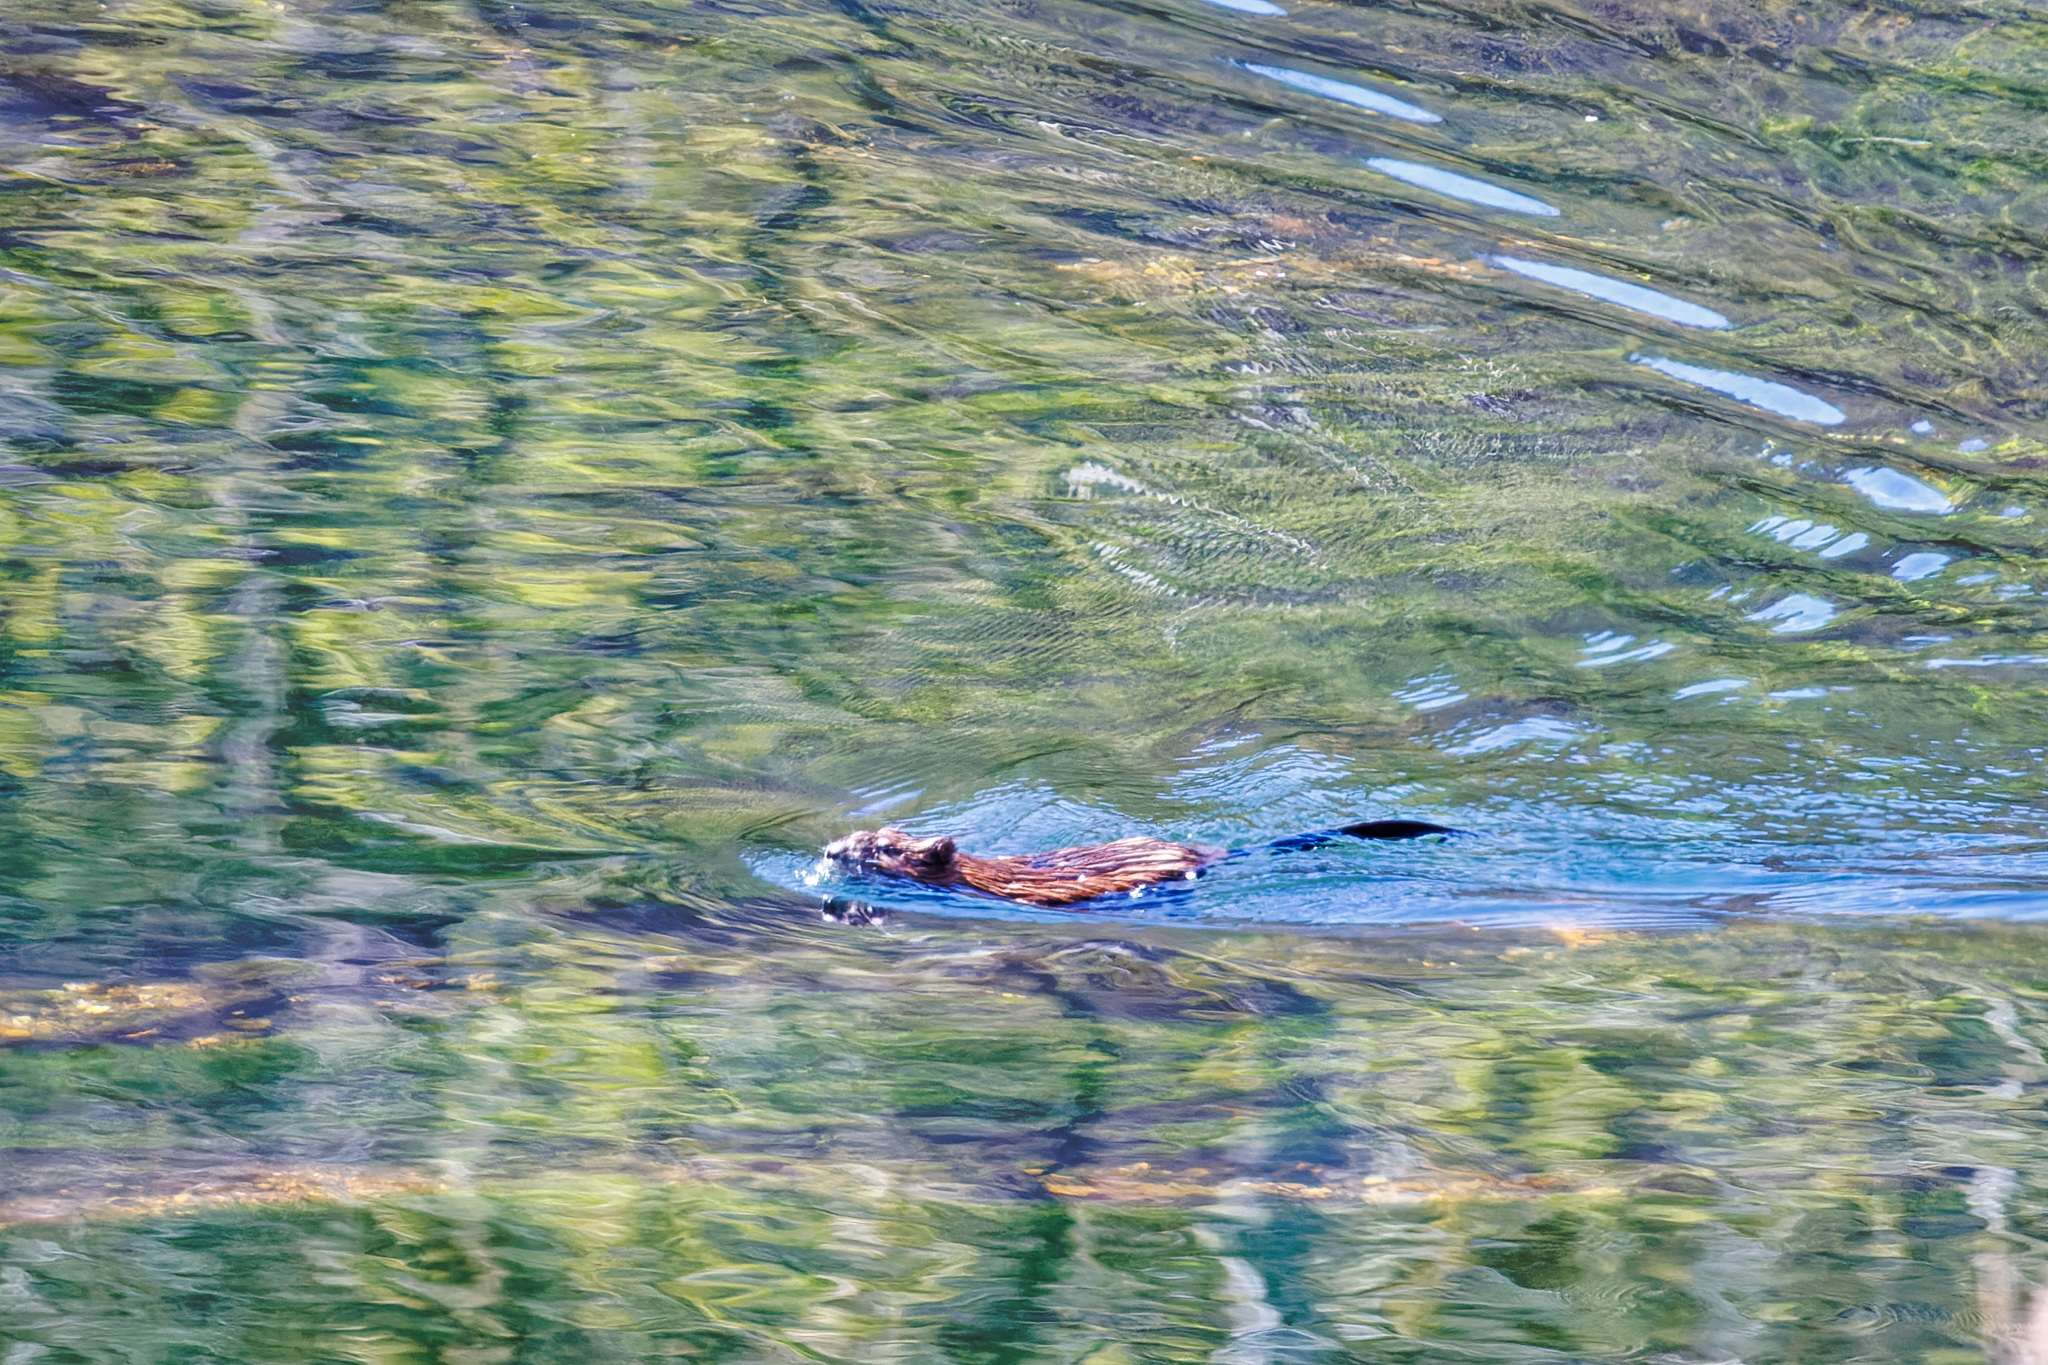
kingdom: Animalia
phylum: Chordata
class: Mammalia
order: Rodentia
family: Cricetidae
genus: Ondatra
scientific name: Ondatra zibethicus
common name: Muskrat
